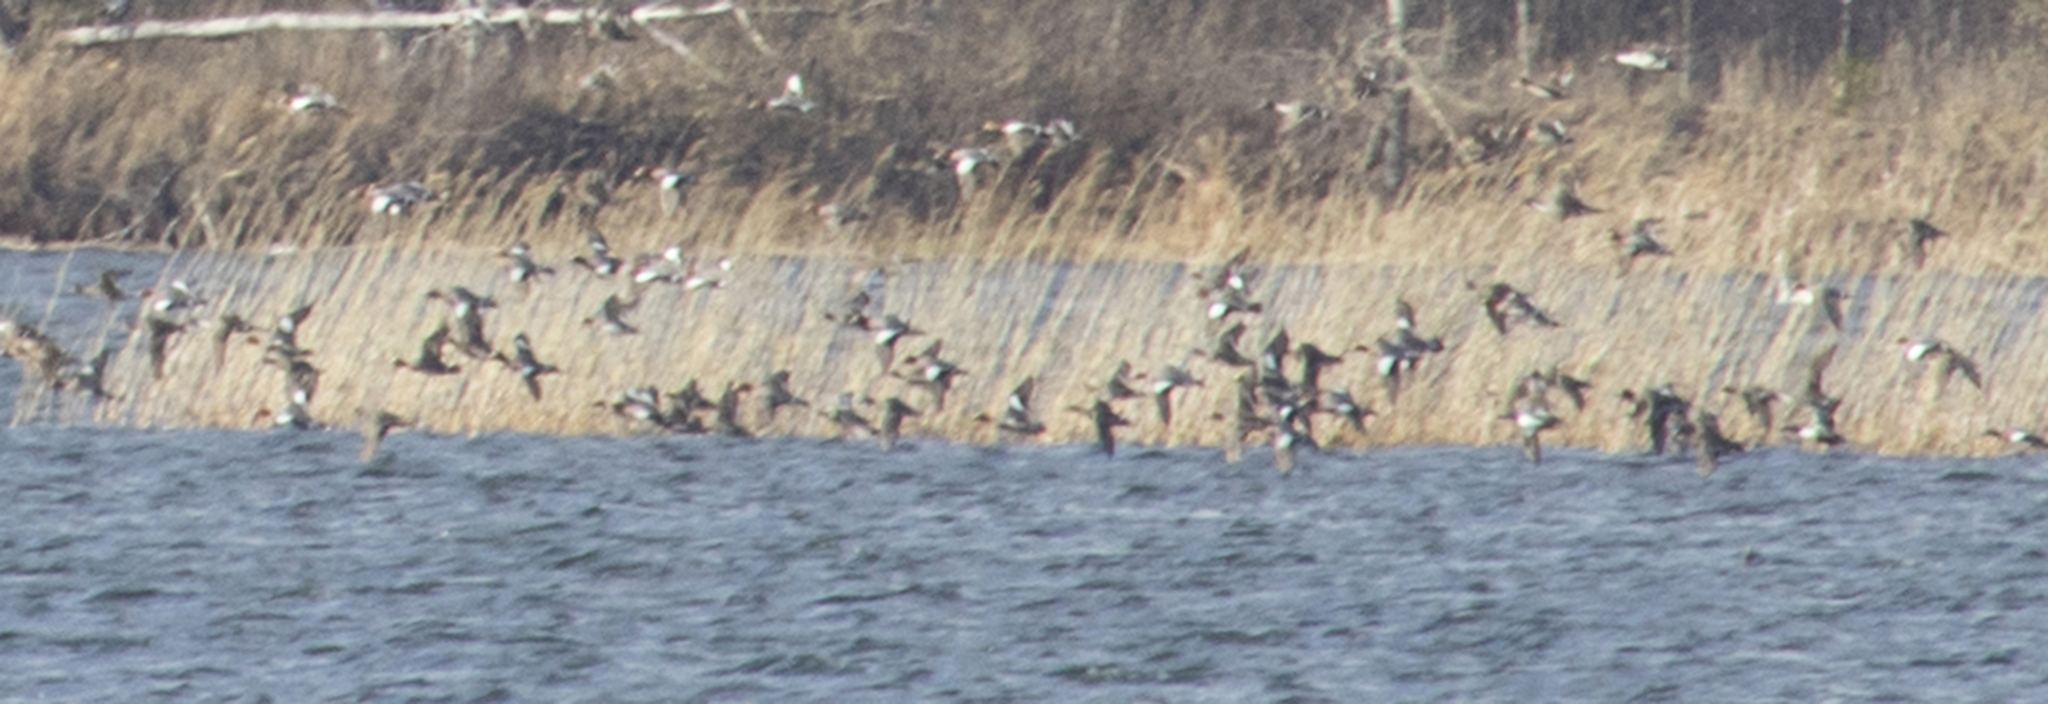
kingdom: Animalia
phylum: Chordata
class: Aves
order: Anseriformes
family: Anatidae
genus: Mareca
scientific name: Mareca penelope
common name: Eurasian wigeon
